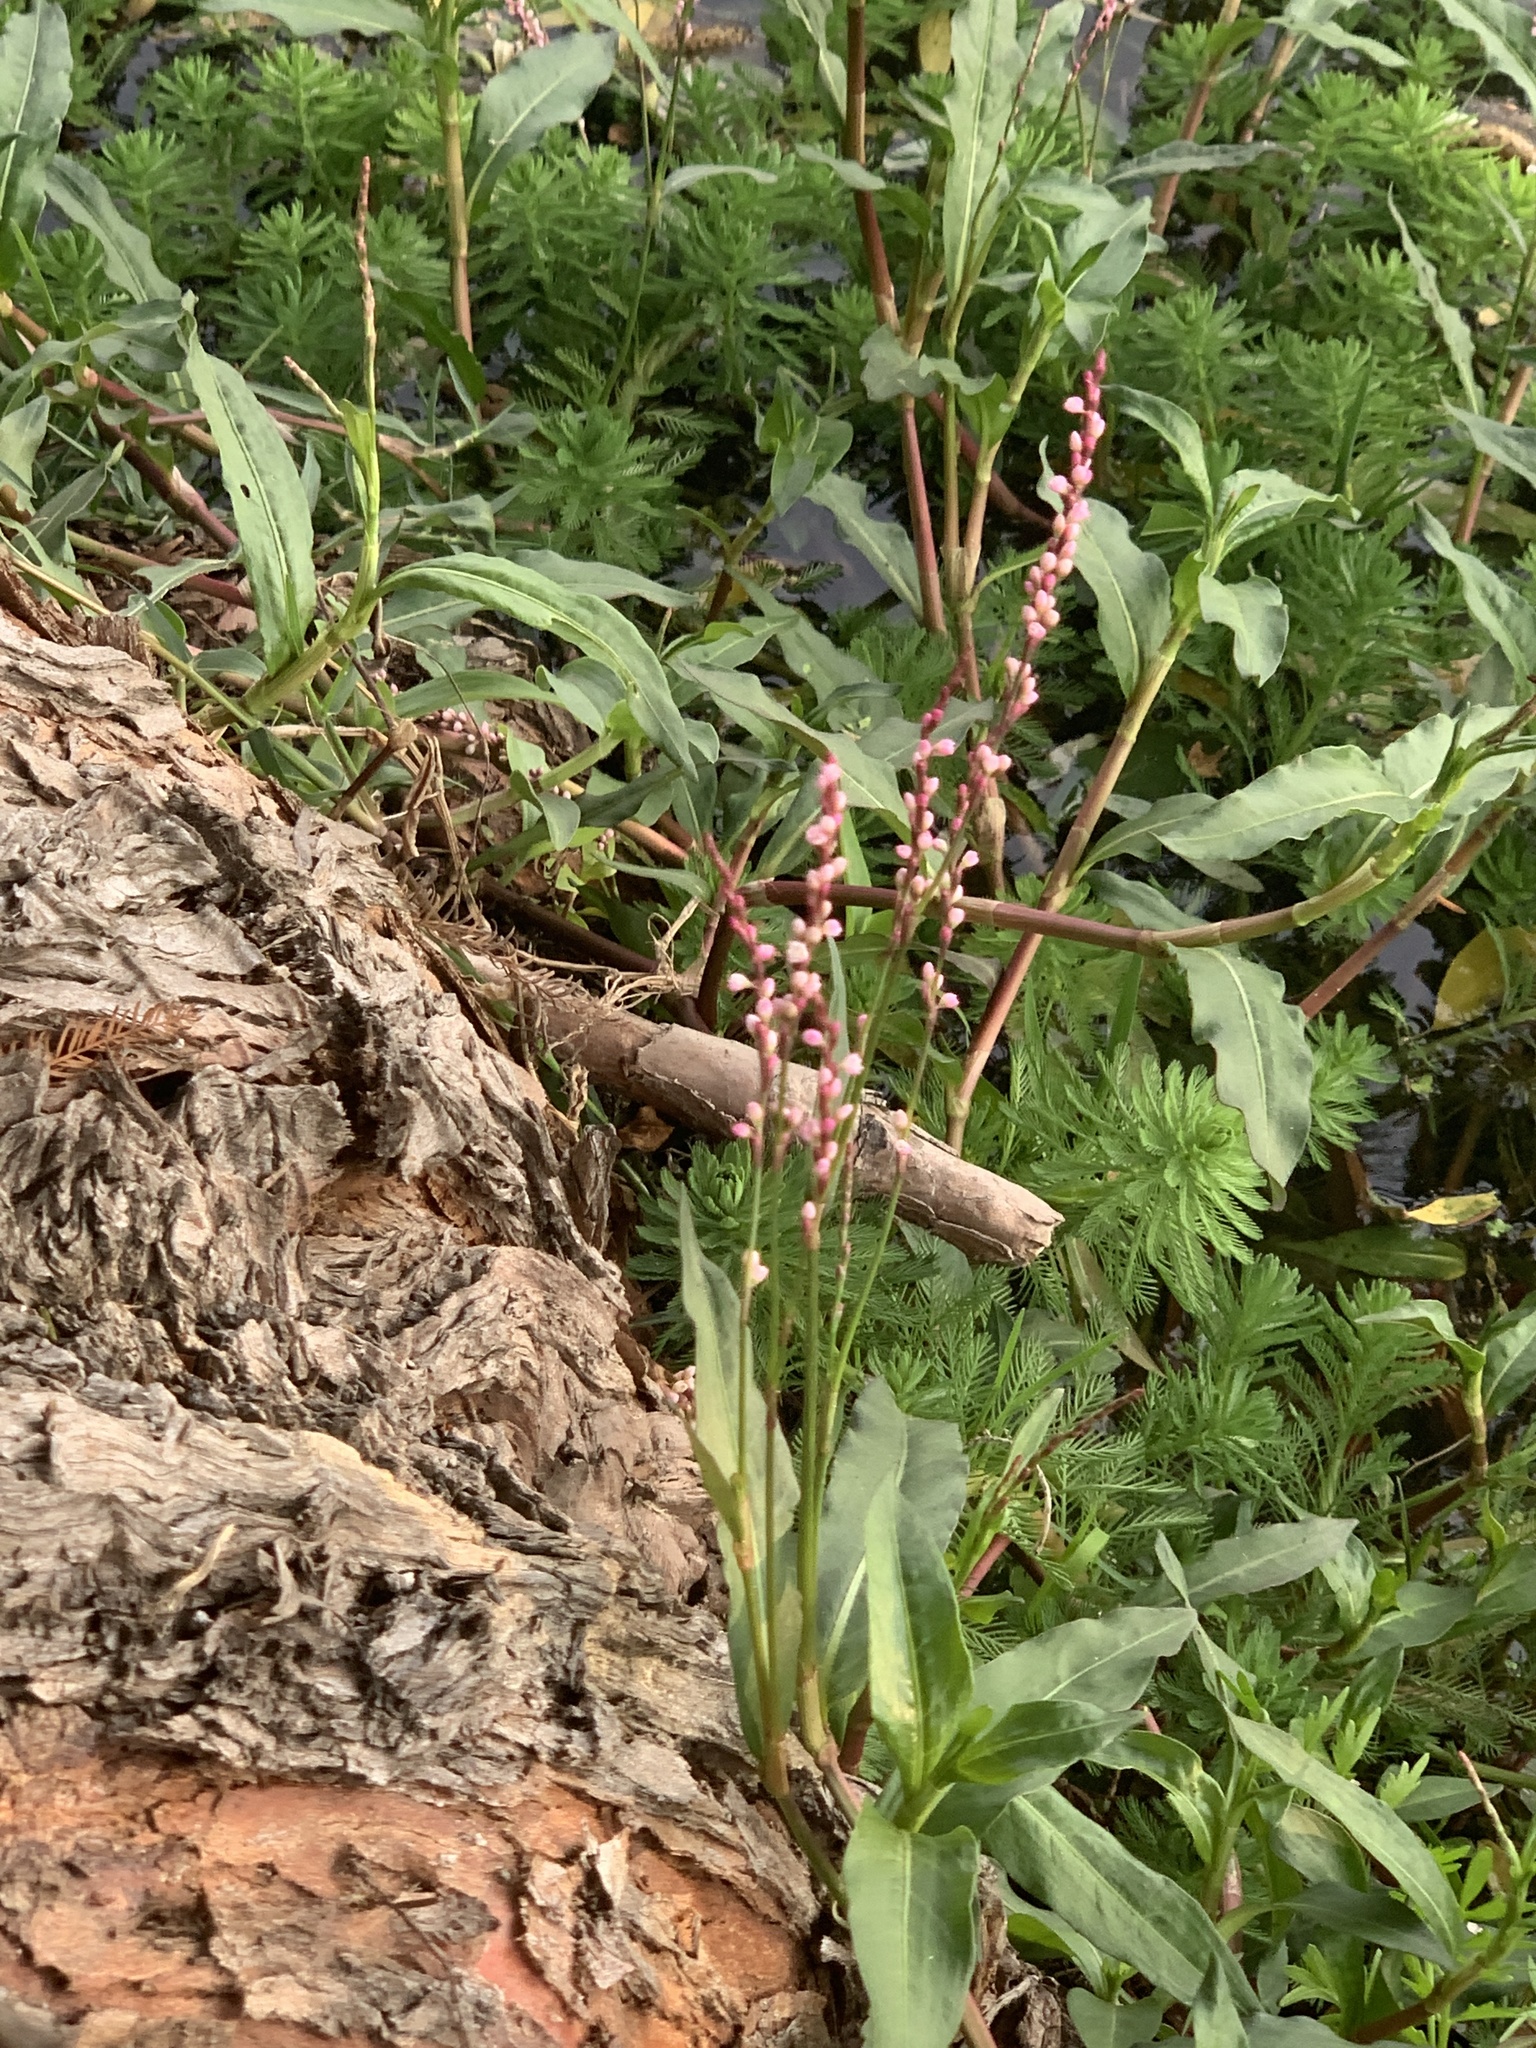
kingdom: Plantae
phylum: Tracheophyta
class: Magnoliopsida
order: Caryophyllales
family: Polygonaceae
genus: Persicaria
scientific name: Persicaria decipiens
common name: Willow-weed
